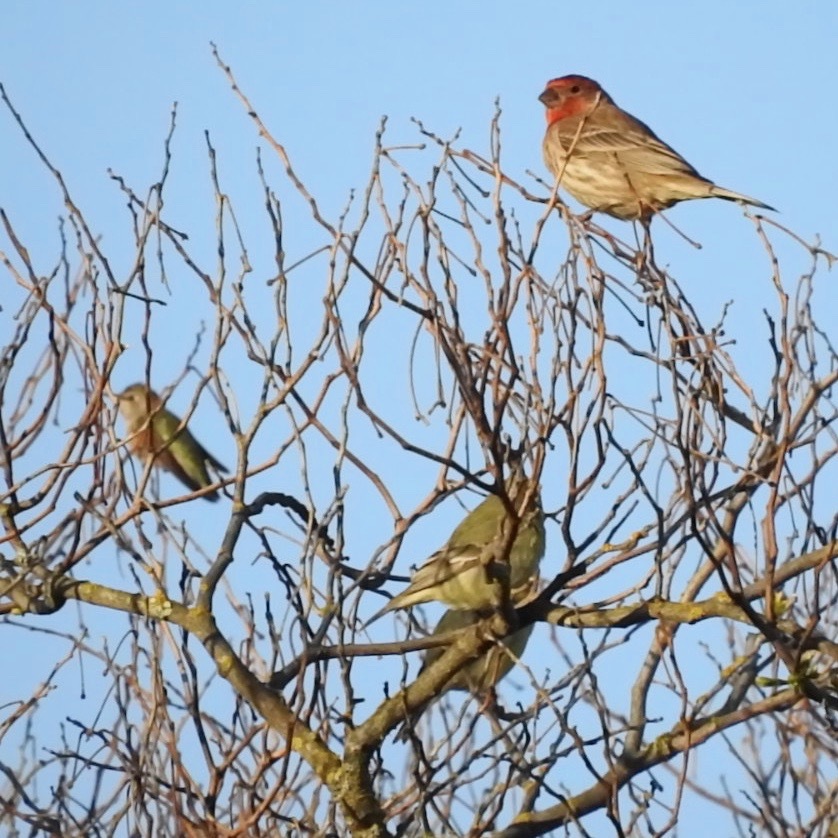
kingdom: Animalia
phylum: Chordata
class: Aves
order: Passeriformes
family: Fringillidae
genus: Haemorhous
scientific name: Haemorhous mexicanus
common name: House finch
